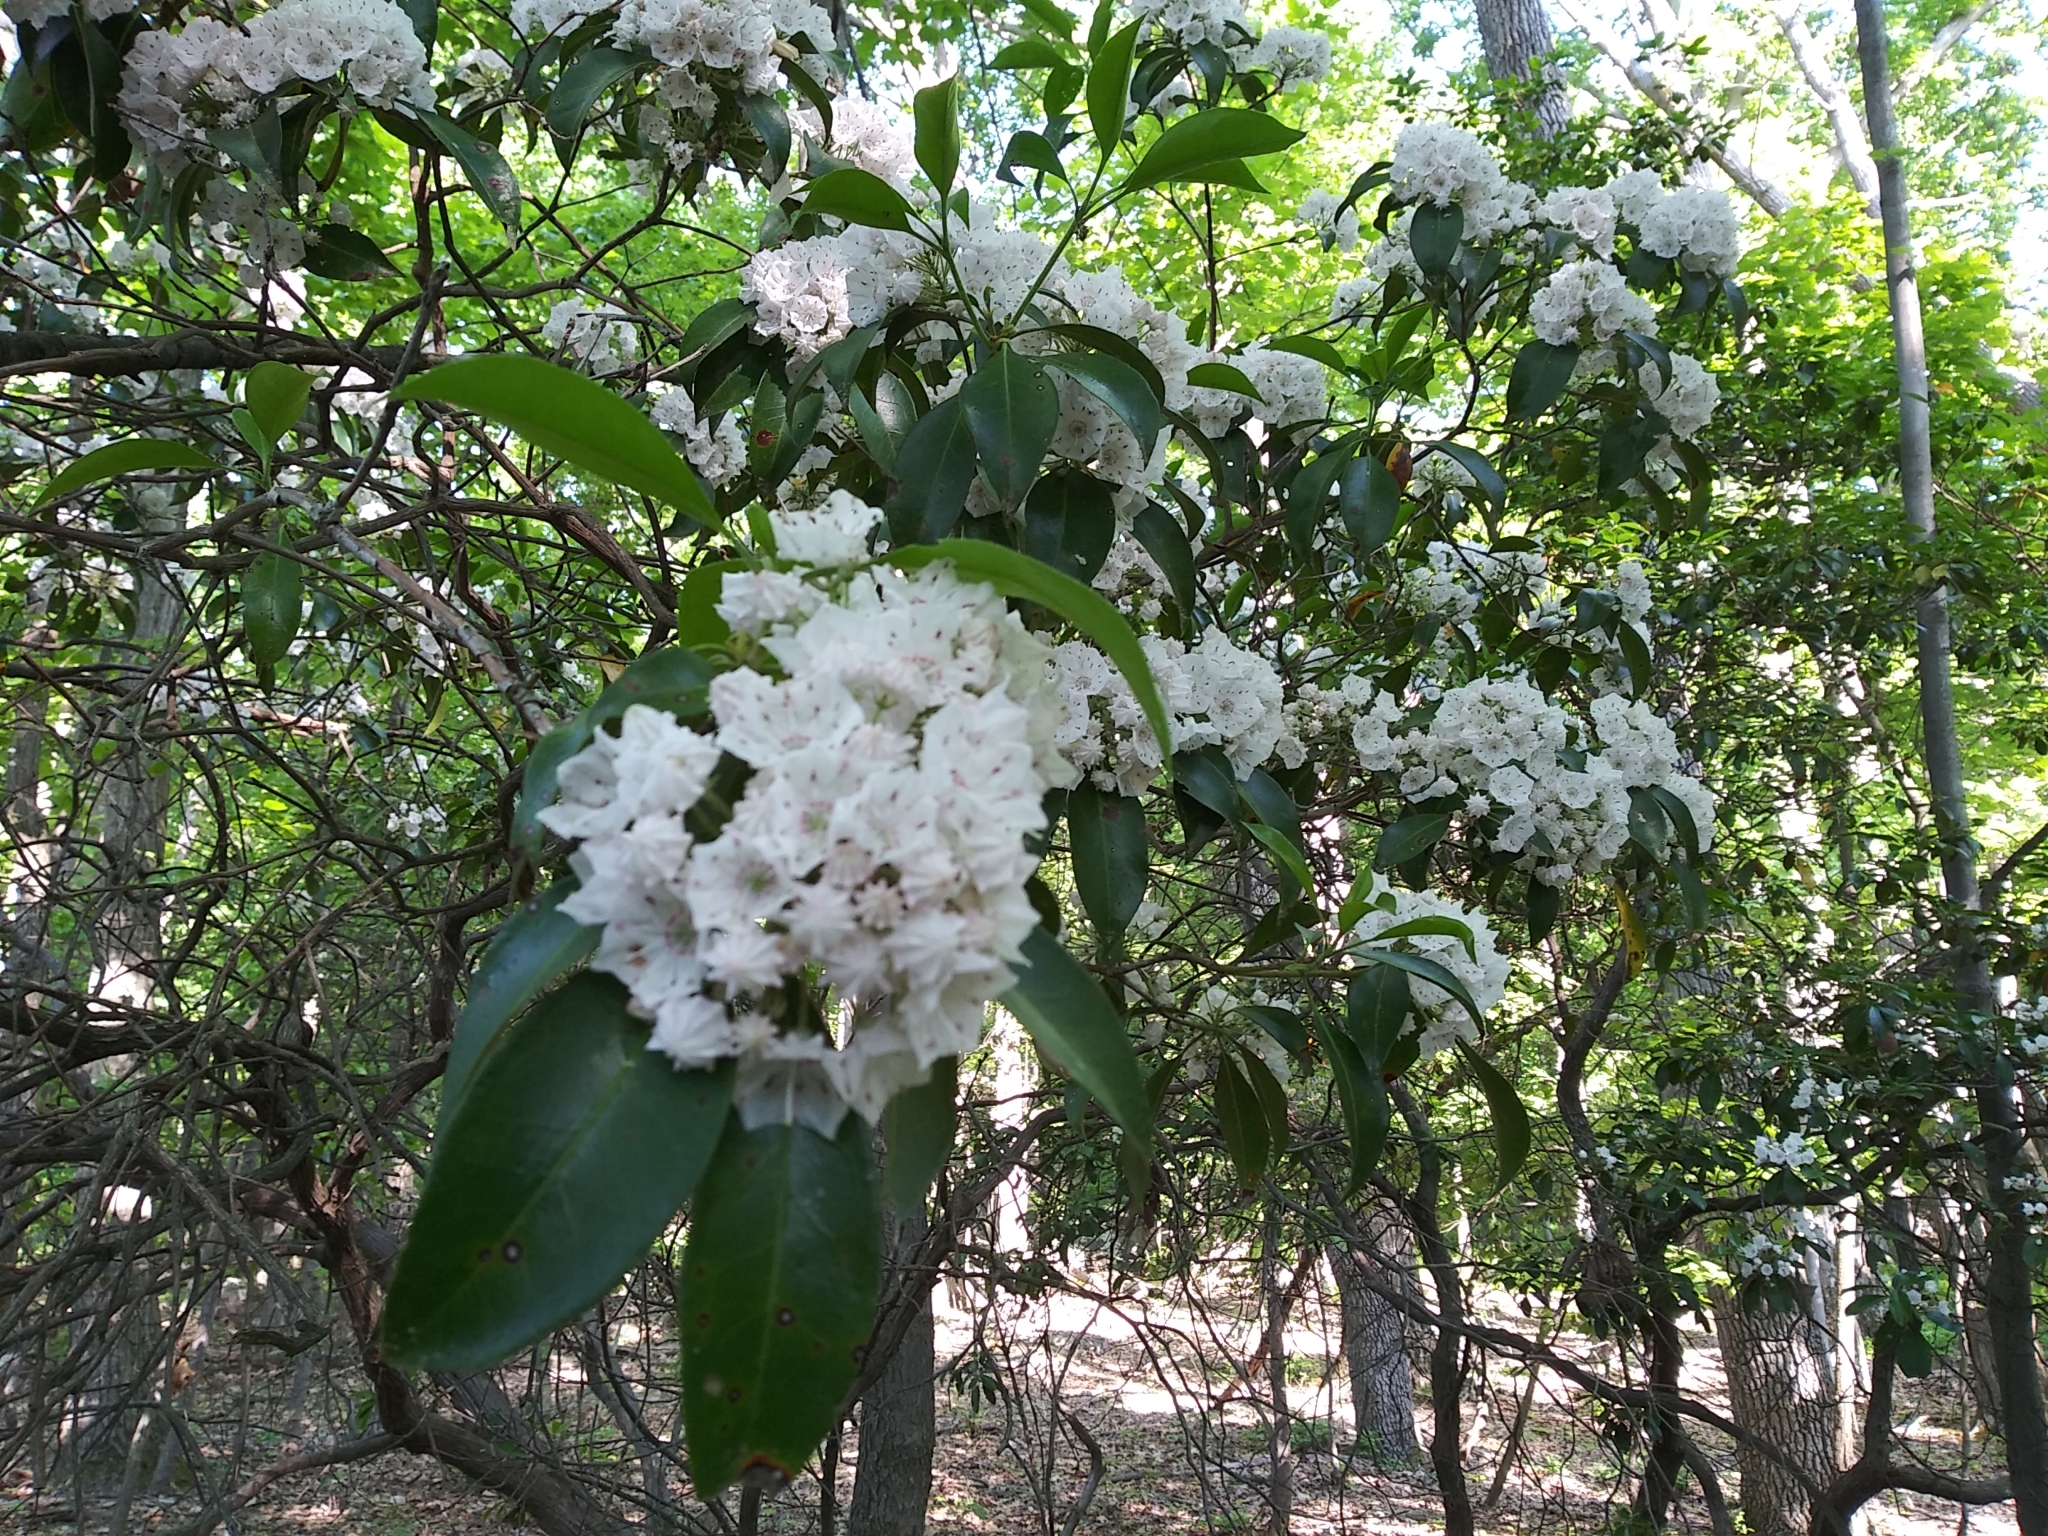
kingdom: Plantae
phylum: Tracheophyta
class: Magnoliopsida
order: Ericales
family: Ericaceae
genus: Kalmia
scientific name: Kalmia latifolia
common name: Mountain-laurel
